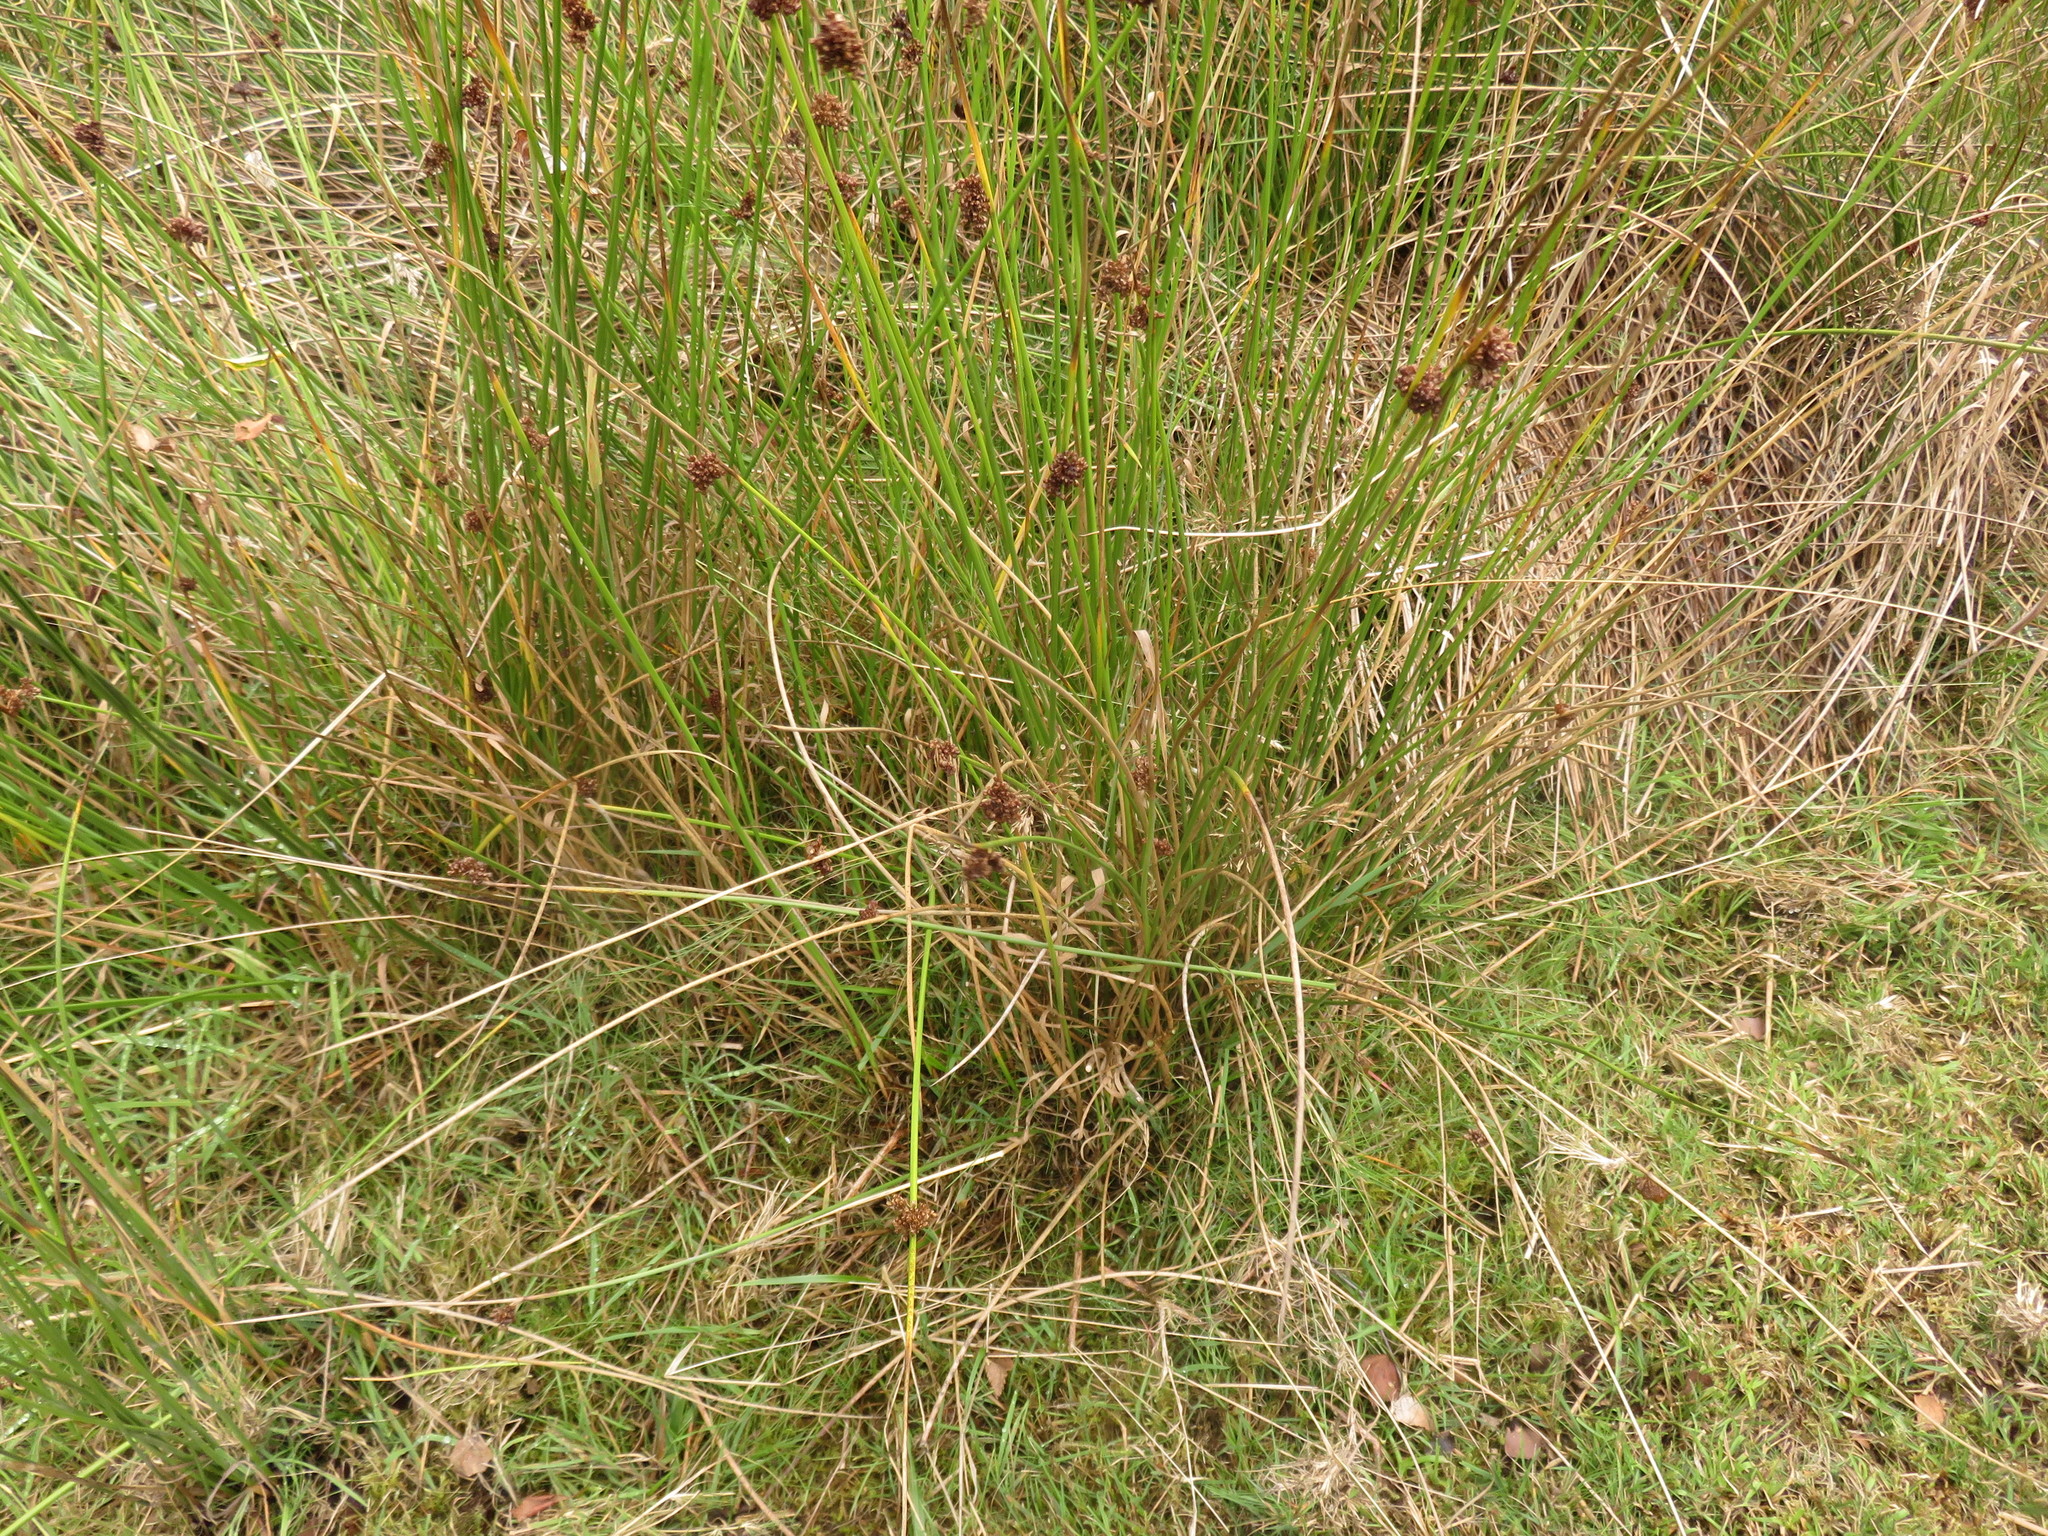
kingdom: Plantae
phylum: Tracheophyta
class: Liliopsida
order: Poales
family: Juncaceae
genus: Juncus
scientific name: Juncus effusus
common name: Soft rush
